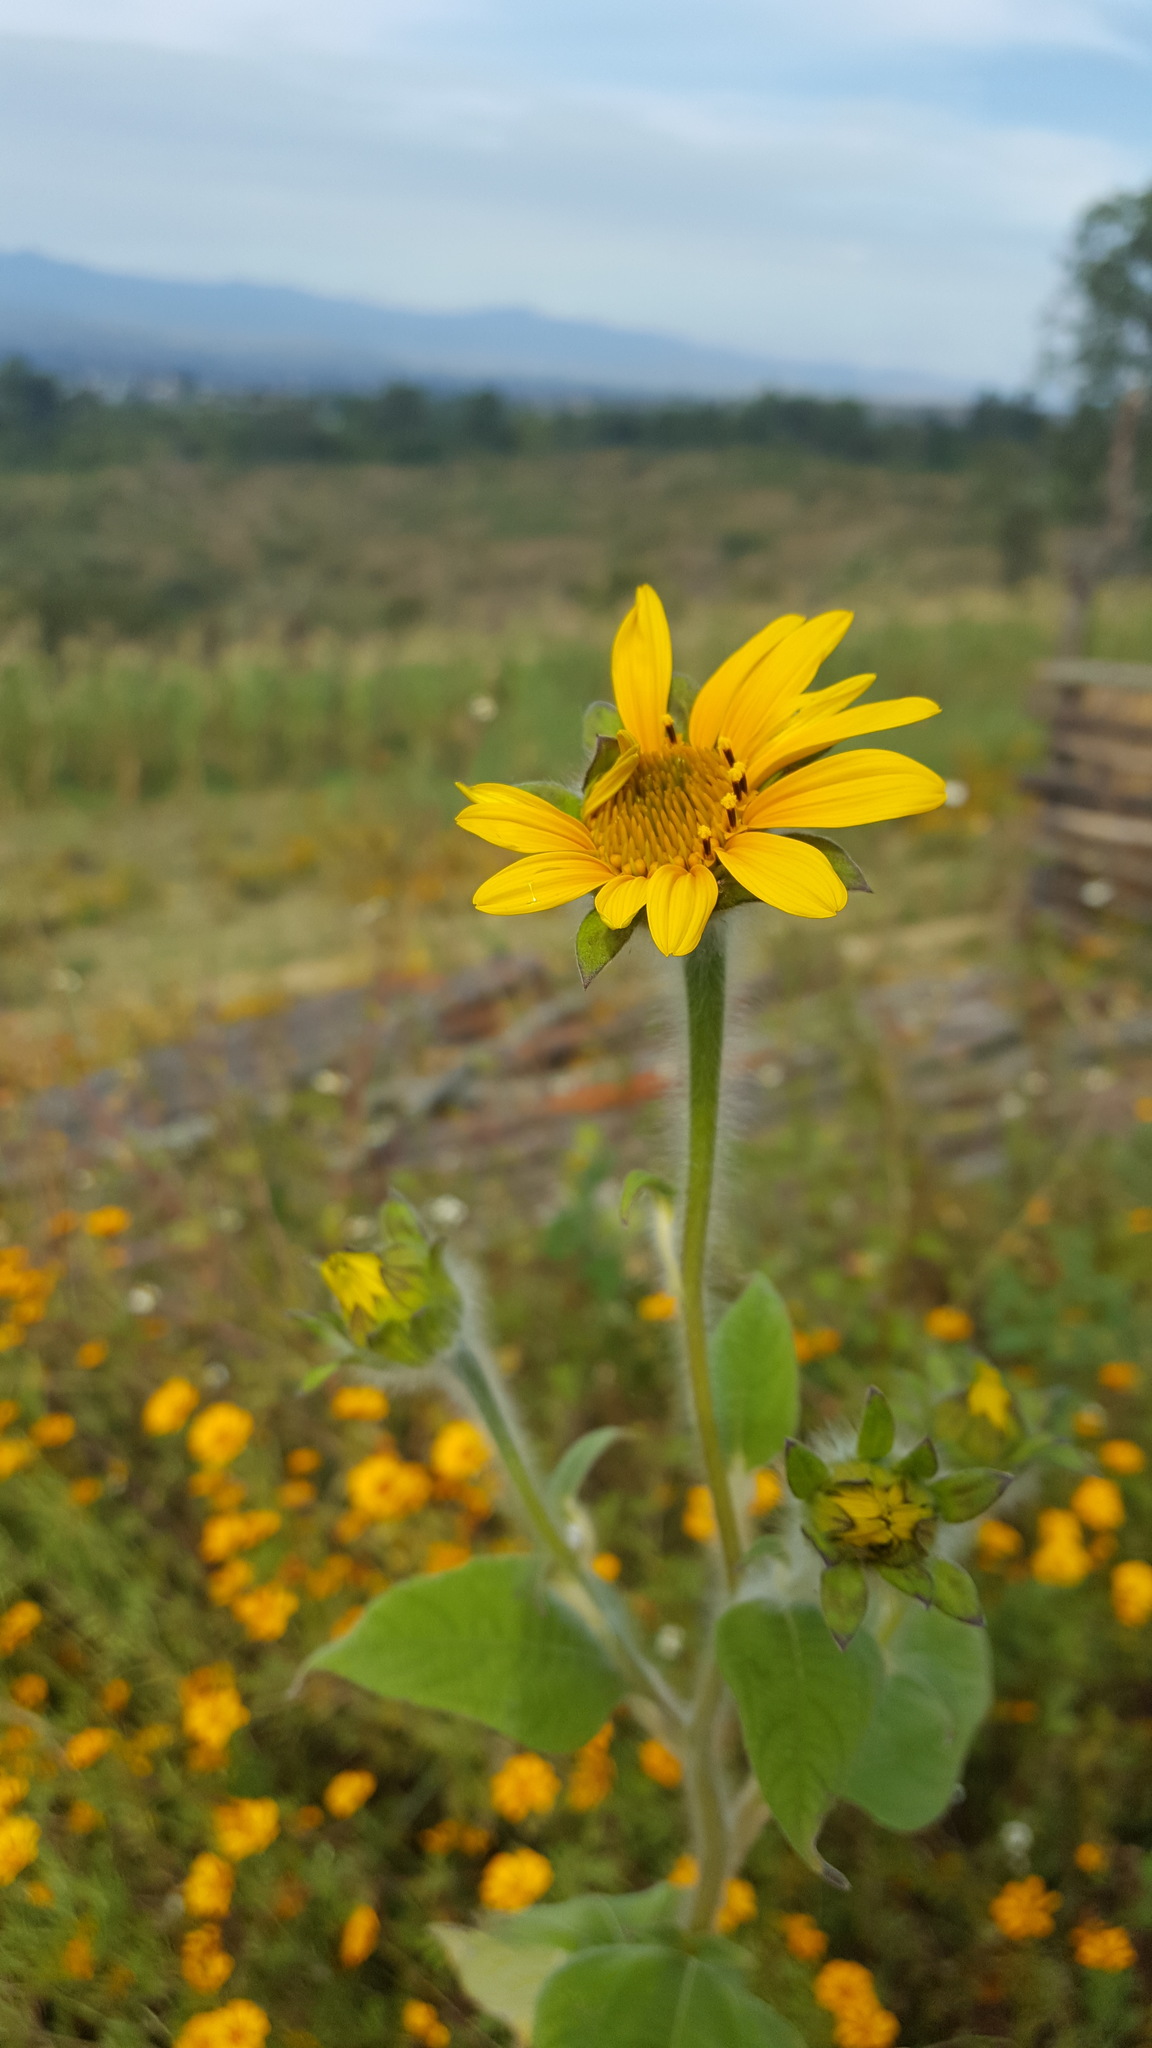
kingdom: Plantae
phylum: Tracheophyta
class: Magnoliopsida
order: Asterales
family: Asteraceae
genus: Tithonia
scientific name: Tithonia tubaeformis
